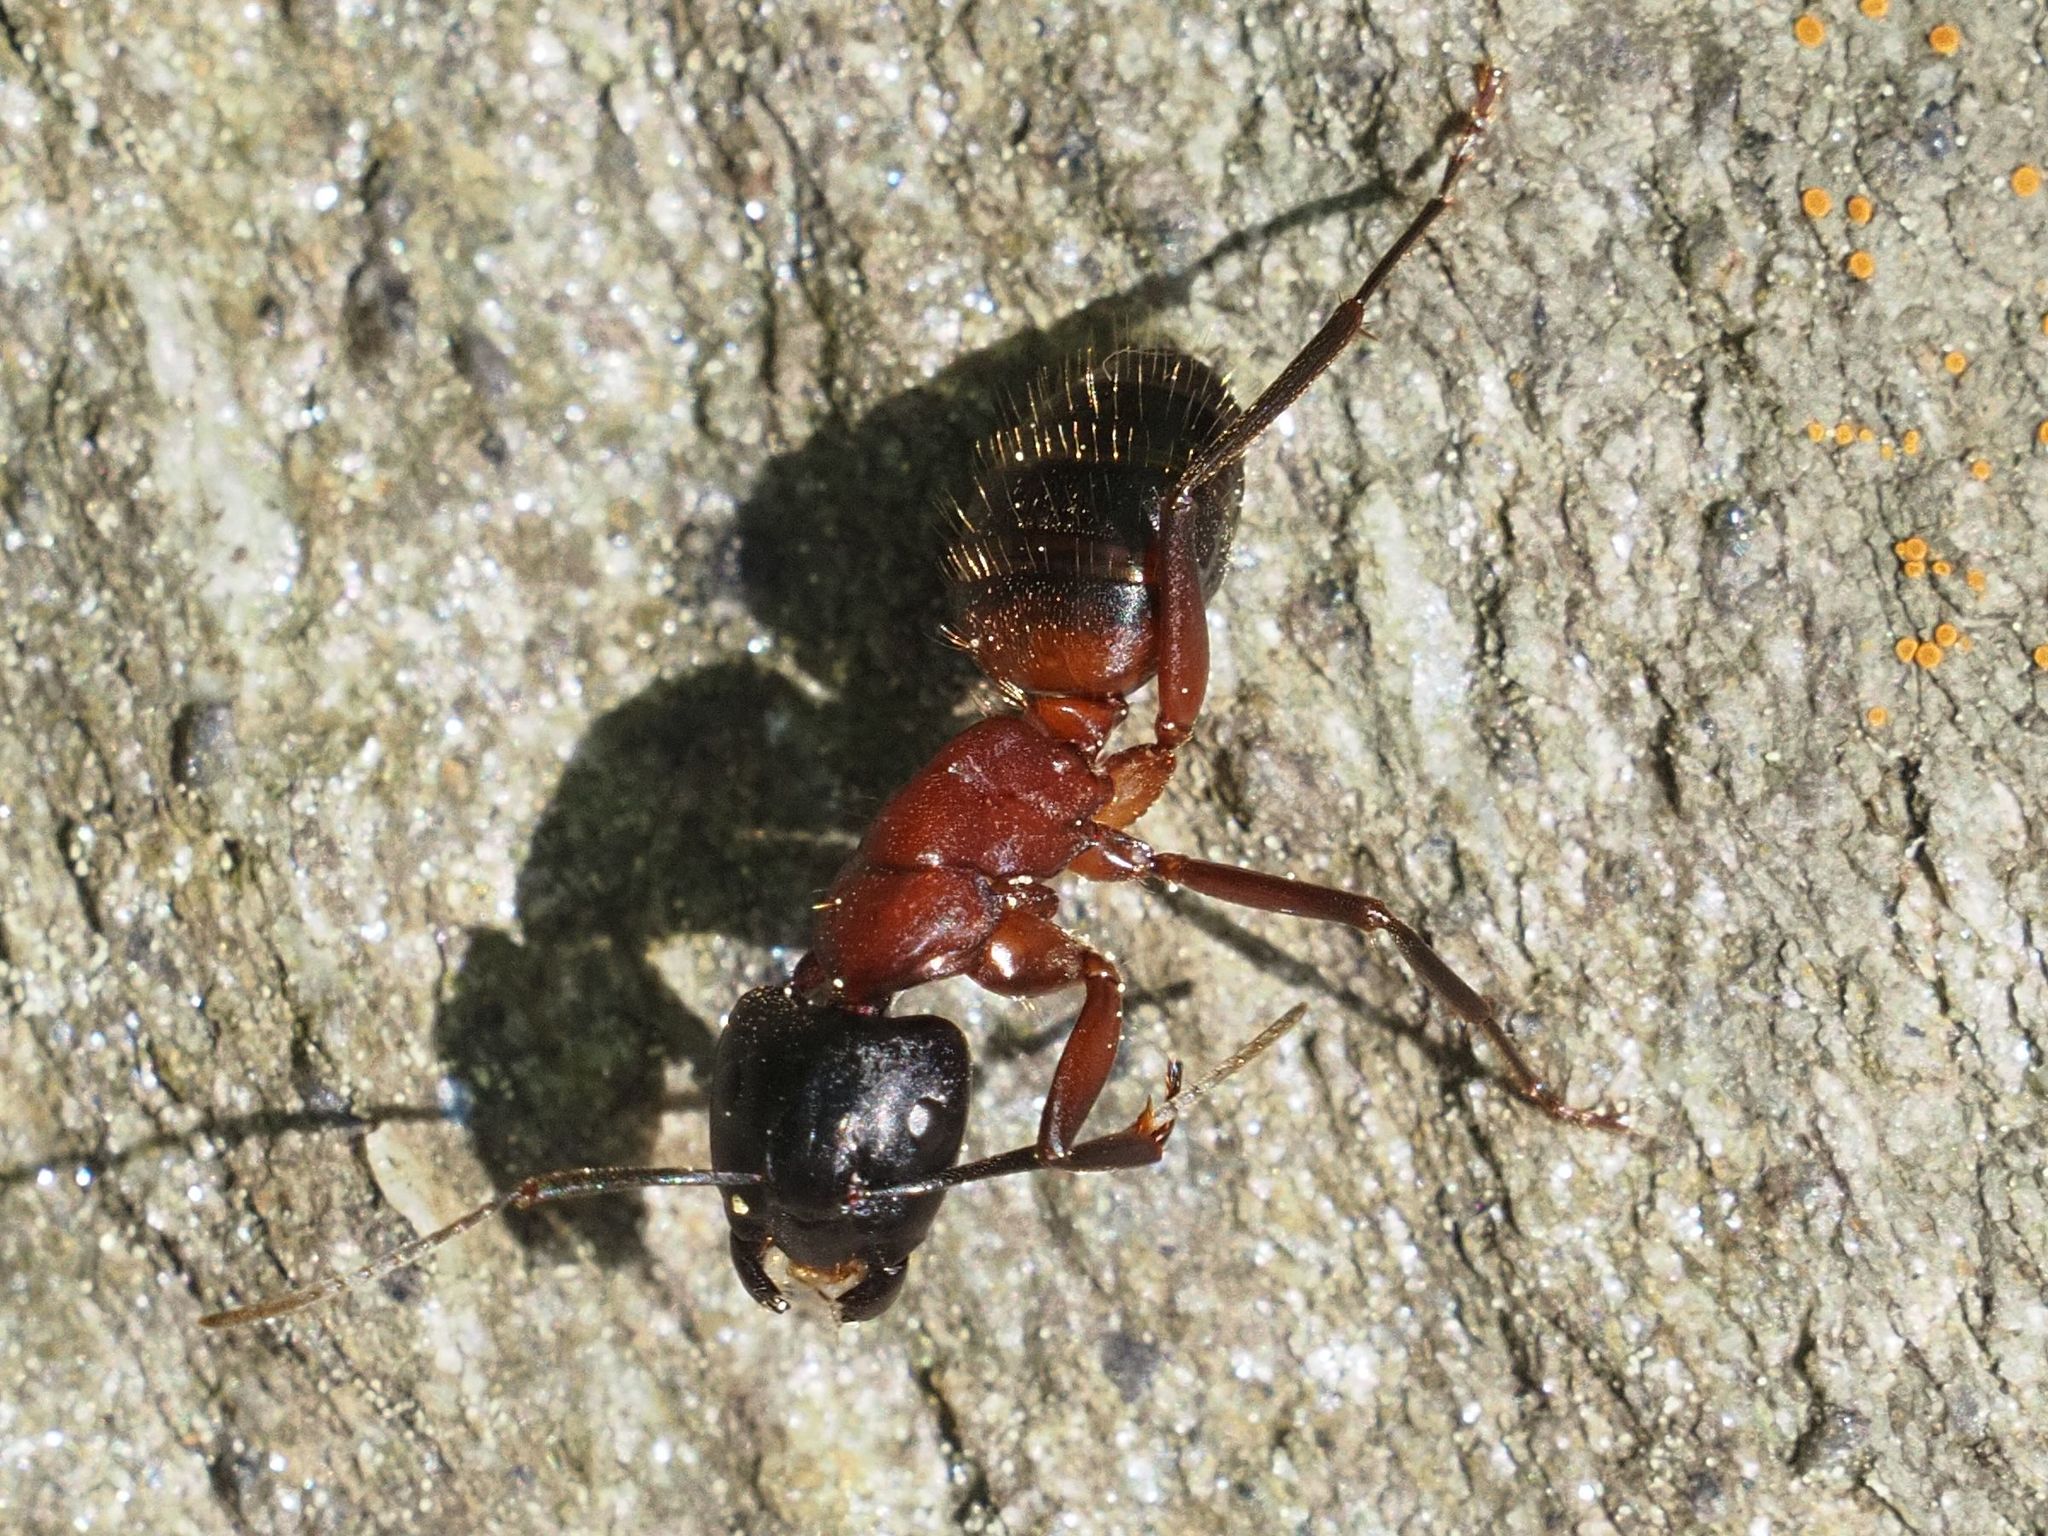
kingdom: Animalia
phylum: Arthropoda
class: Insecta
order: Hymenoptera
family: Formicidae
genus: Camponotus
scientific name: Camponotus ligniperdus
